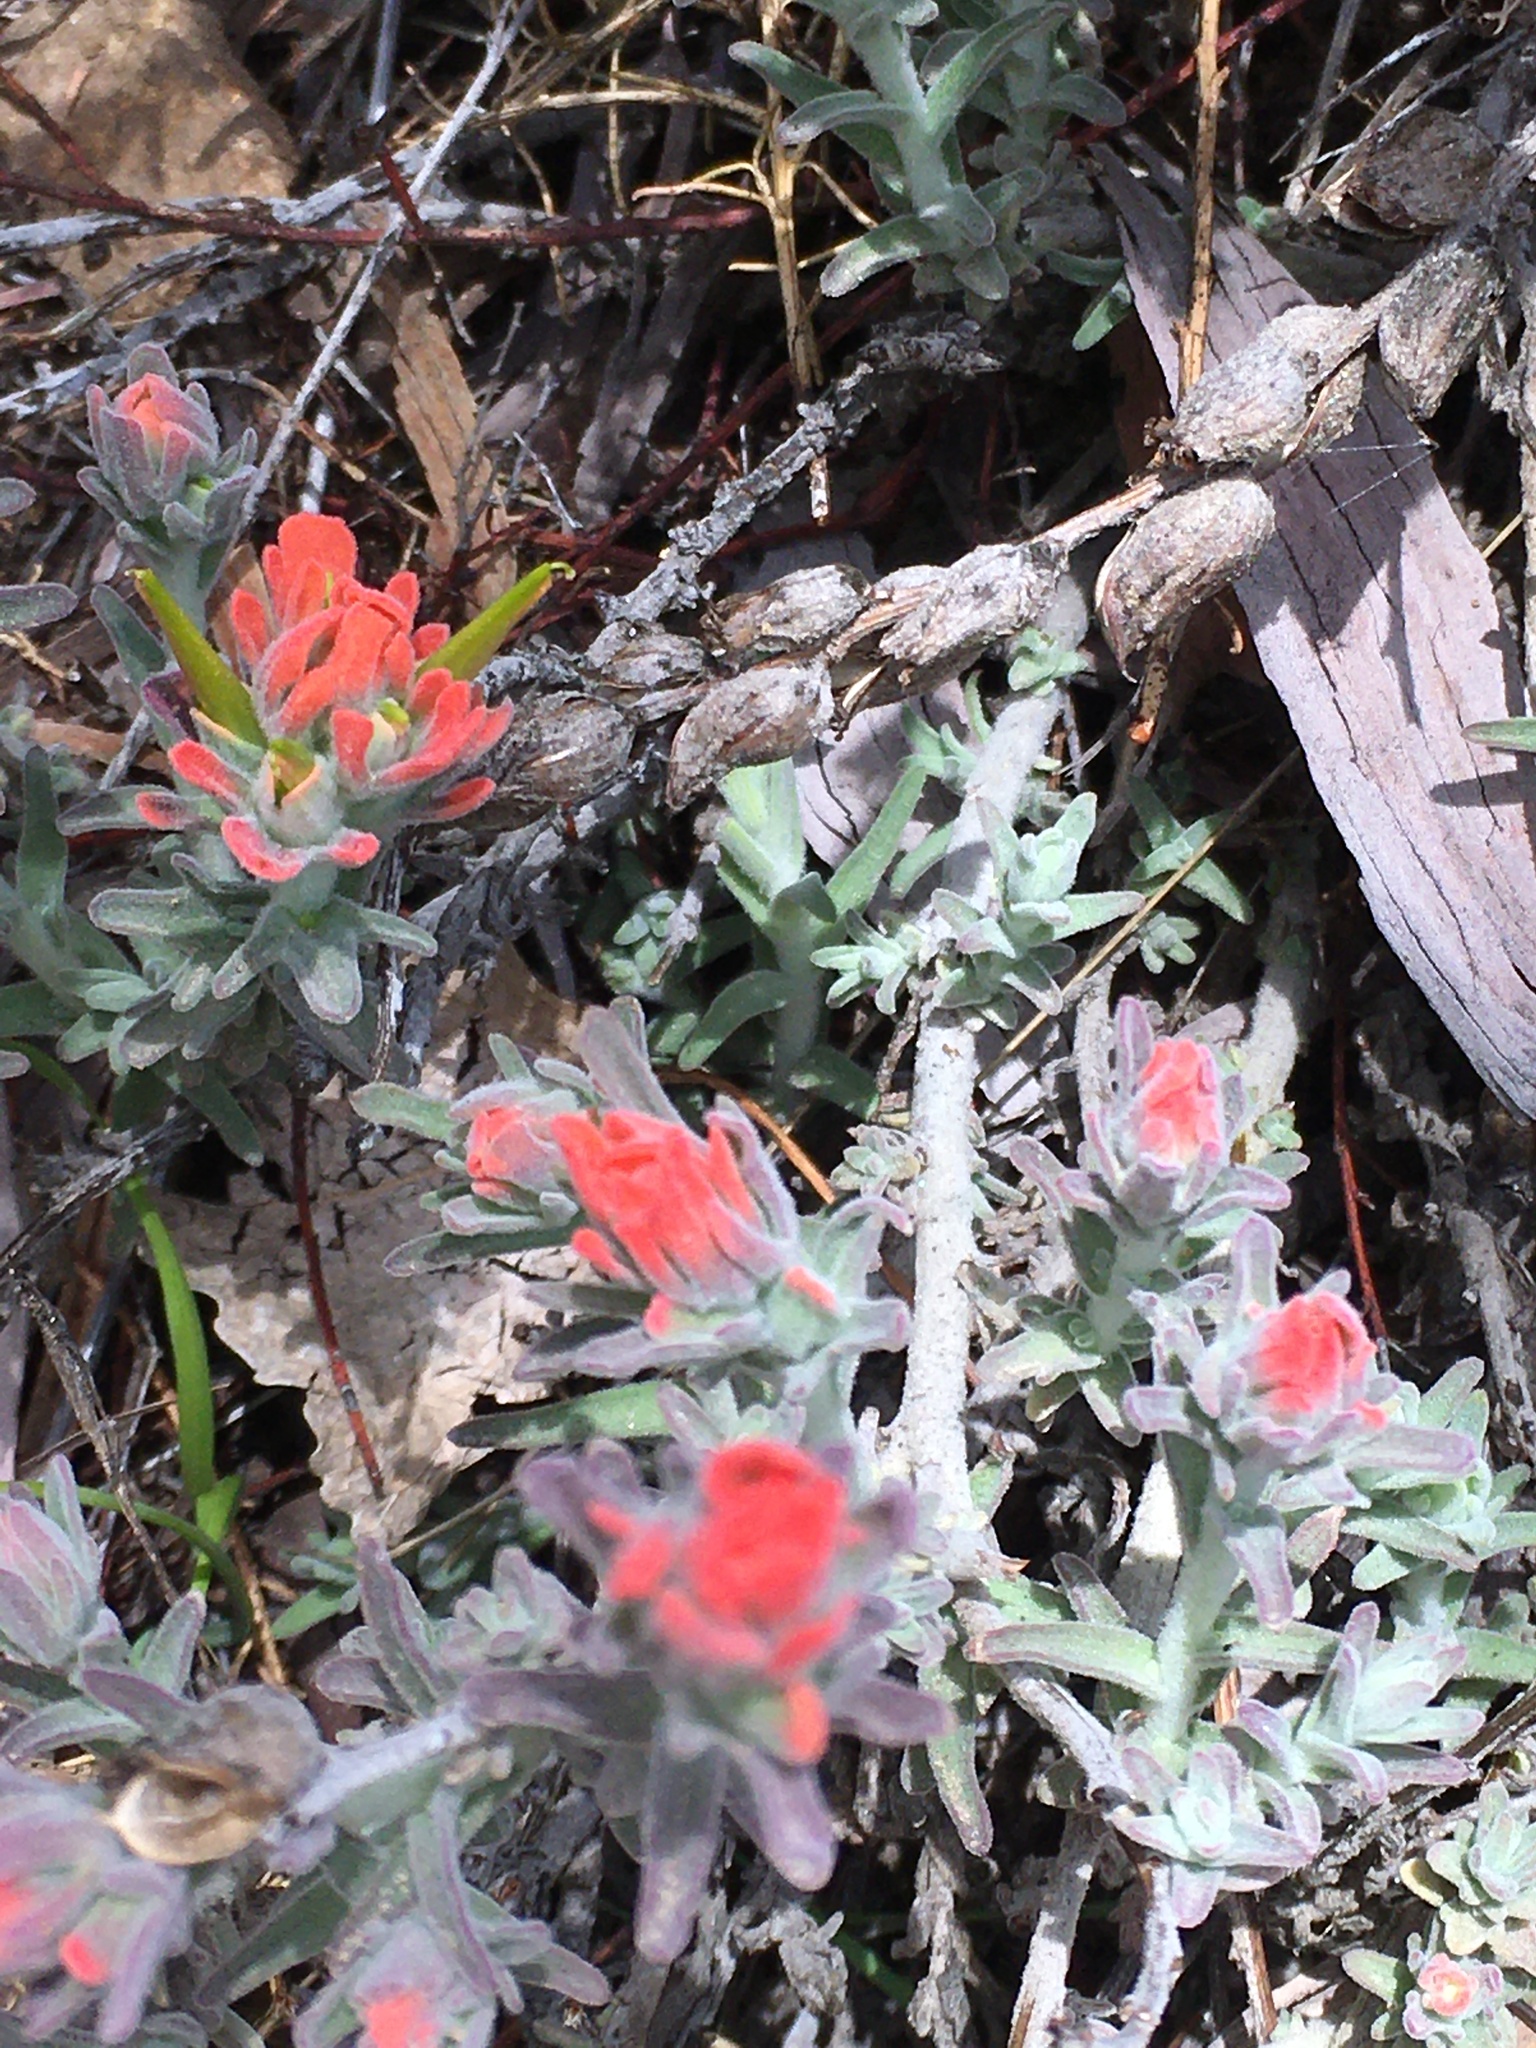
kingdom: Plantae
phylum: Tracheophyta
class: Magnoliopsida
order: Lamiales
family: Orobanchaceae
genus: Castilleja
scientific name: Castilleja foliolosa
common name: Woolly indian paintbrush
